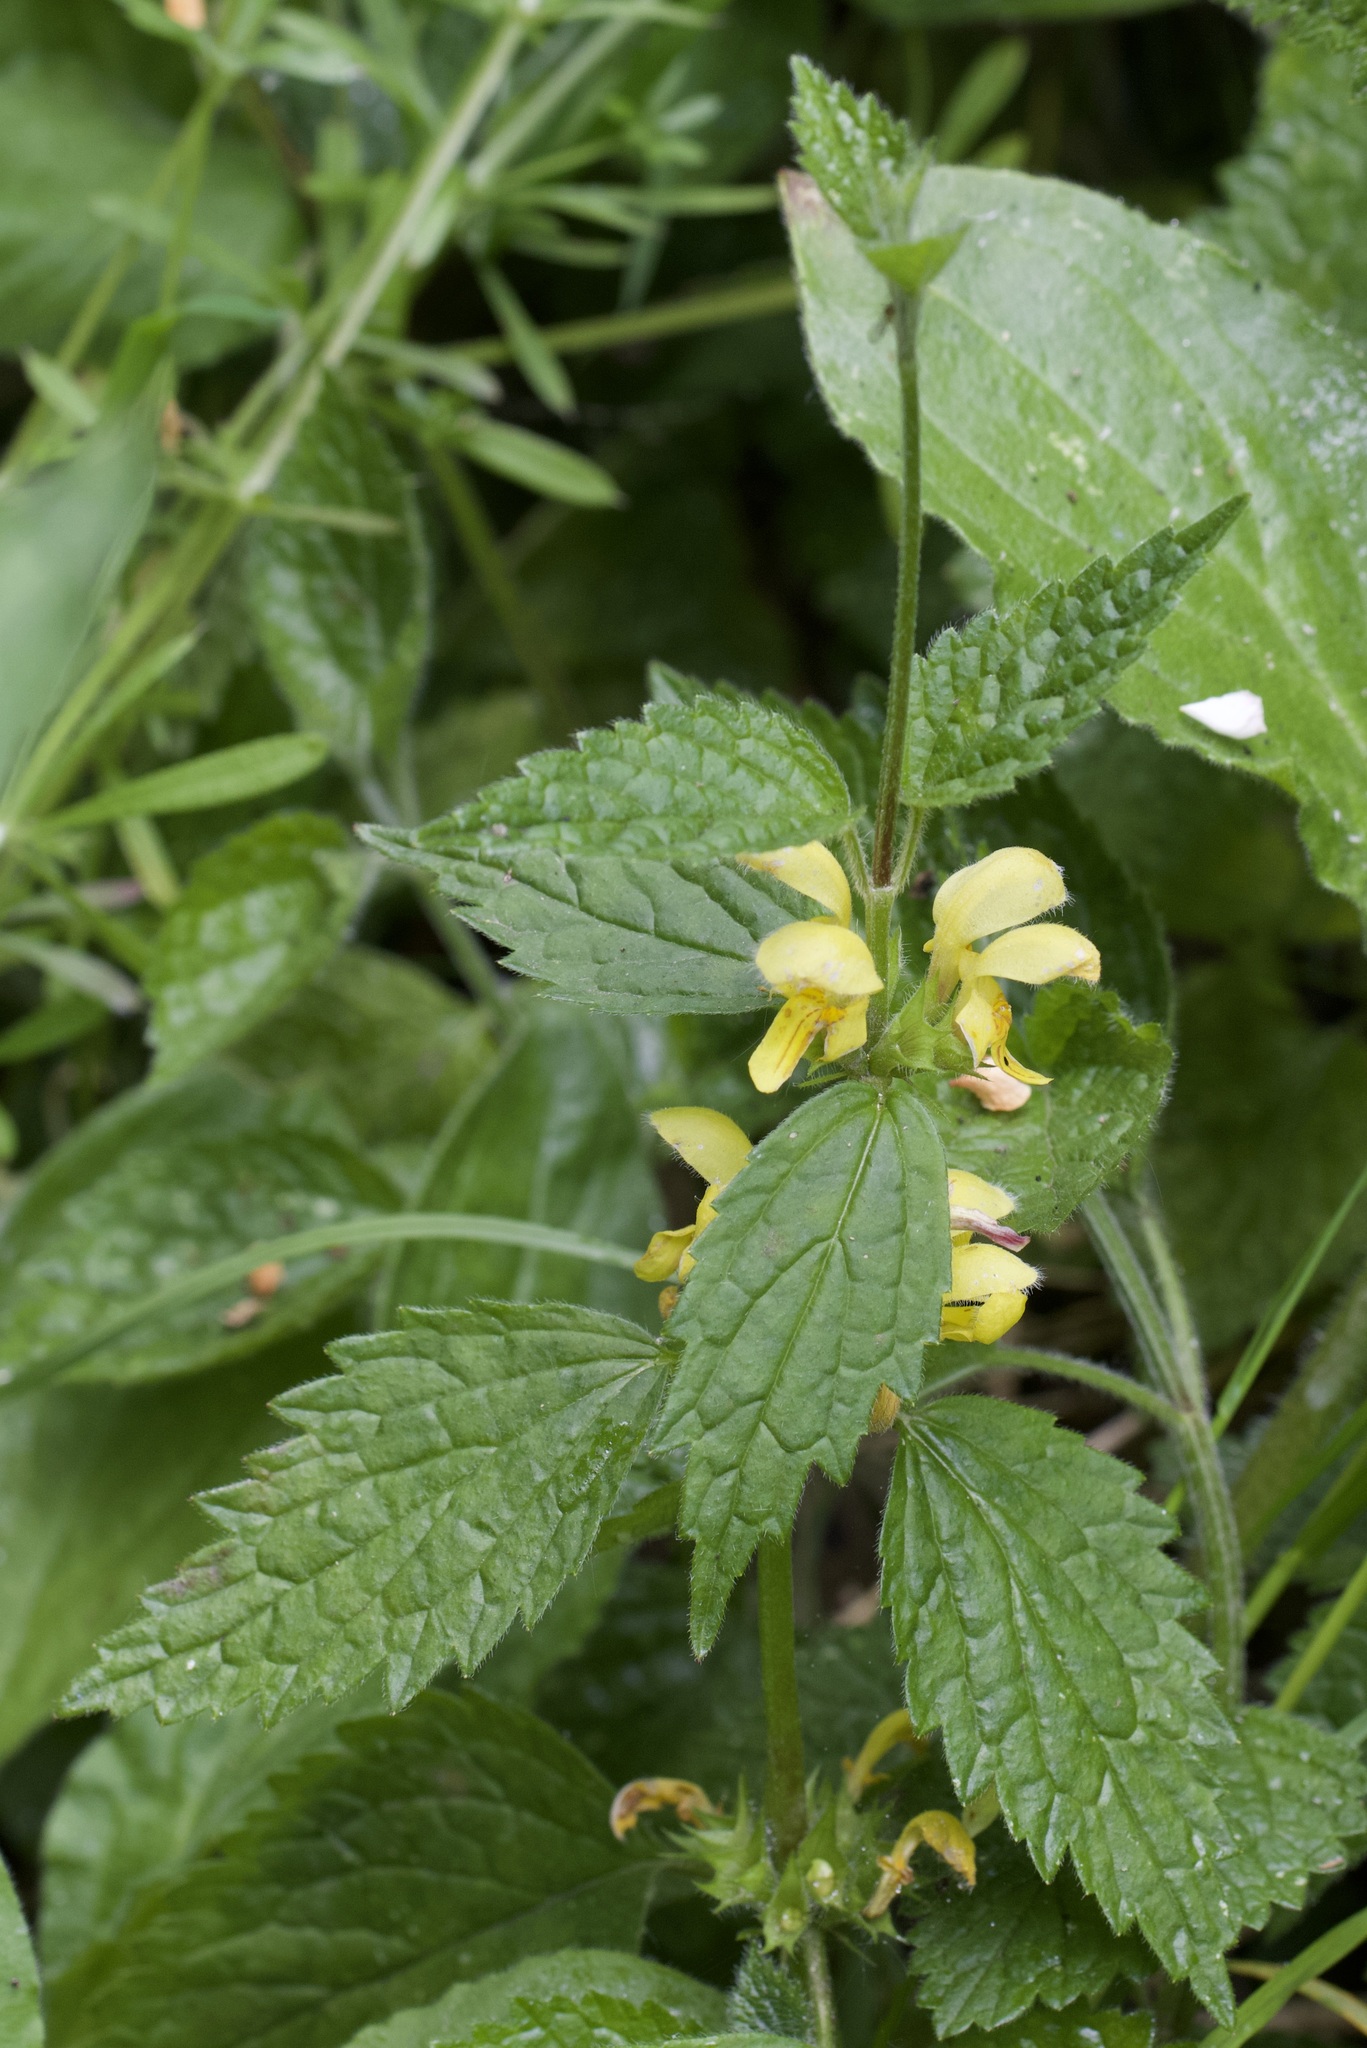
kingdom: Plantae
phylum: Tracheophyta
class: Magnoliopsida
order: Lamiales
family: Lamiaceae
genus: Lamium
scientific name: Lamium galeobdolon
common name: Yellow archangel
